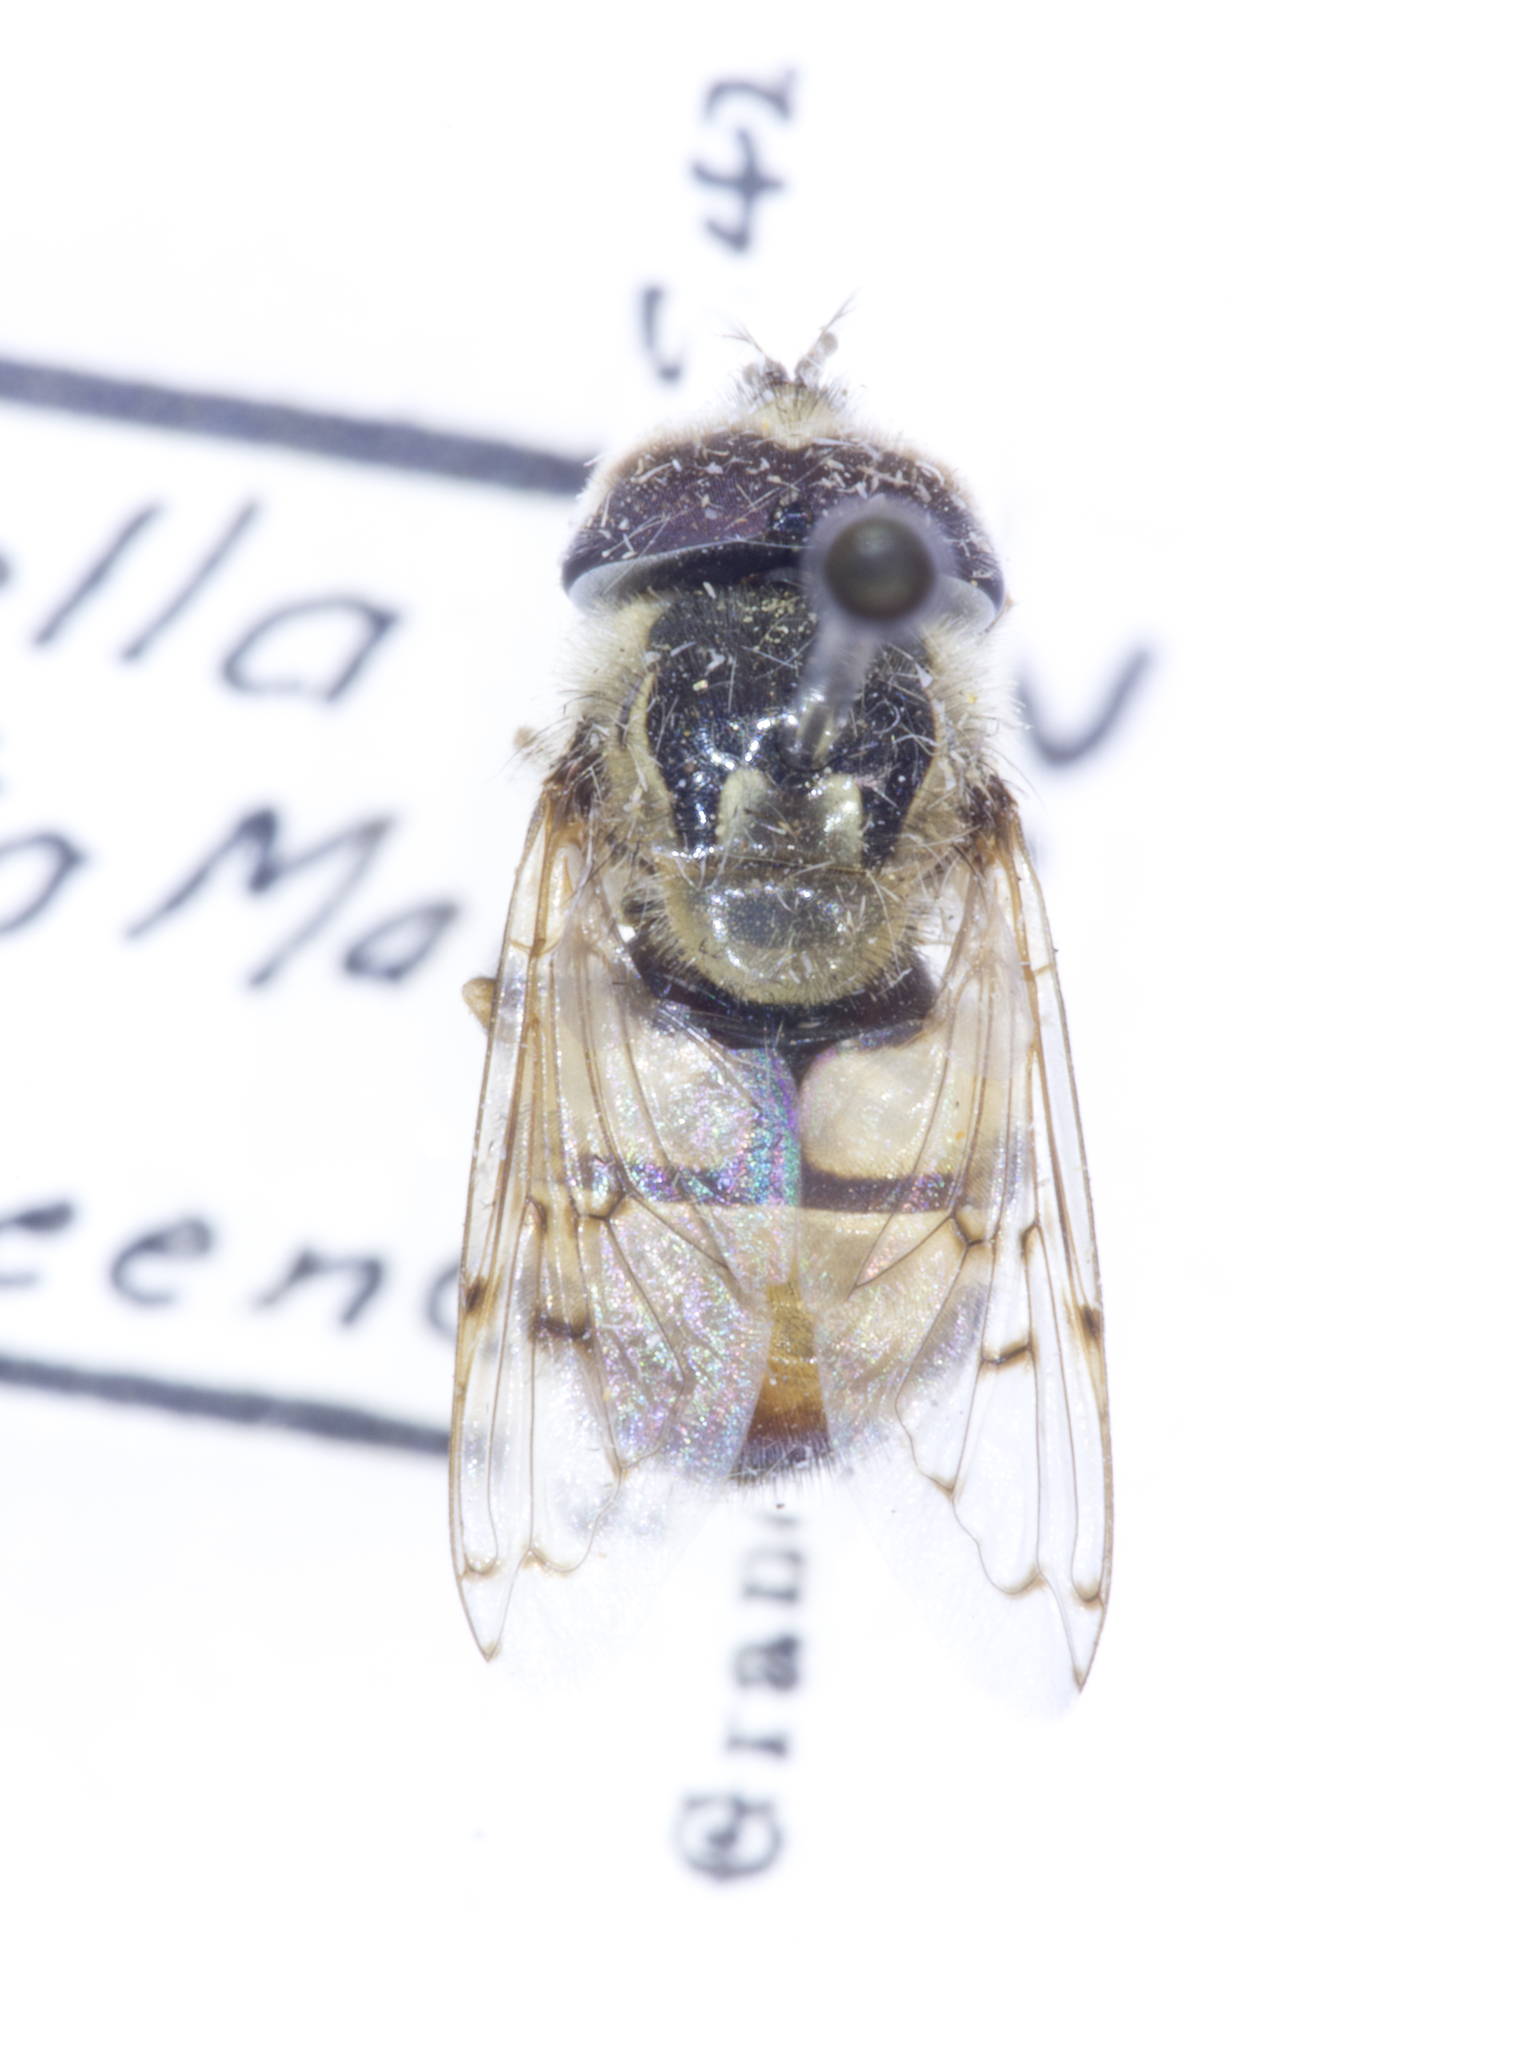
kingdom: Animalia
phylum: Arthropoda
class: Insecta
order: Diptera
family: Syrphidae
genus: Copestylum
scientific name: Copestylum satur
